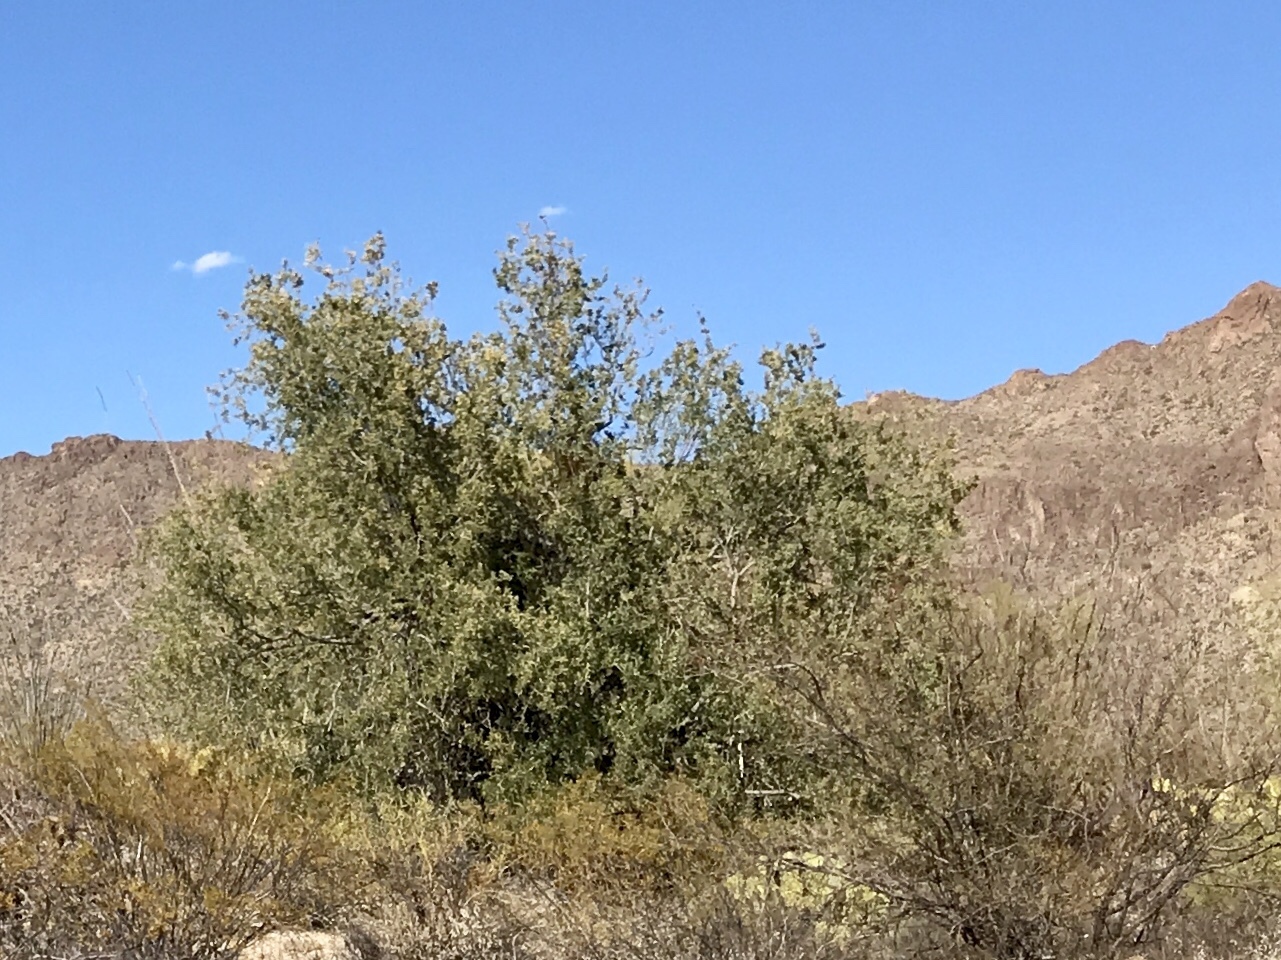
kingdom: Plantae
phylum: Tracheophyta
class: Magnoliopsida
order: Fabales
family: Fabaceae
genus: Olneya
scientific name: Olneya tesota
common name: Desert ironwood
